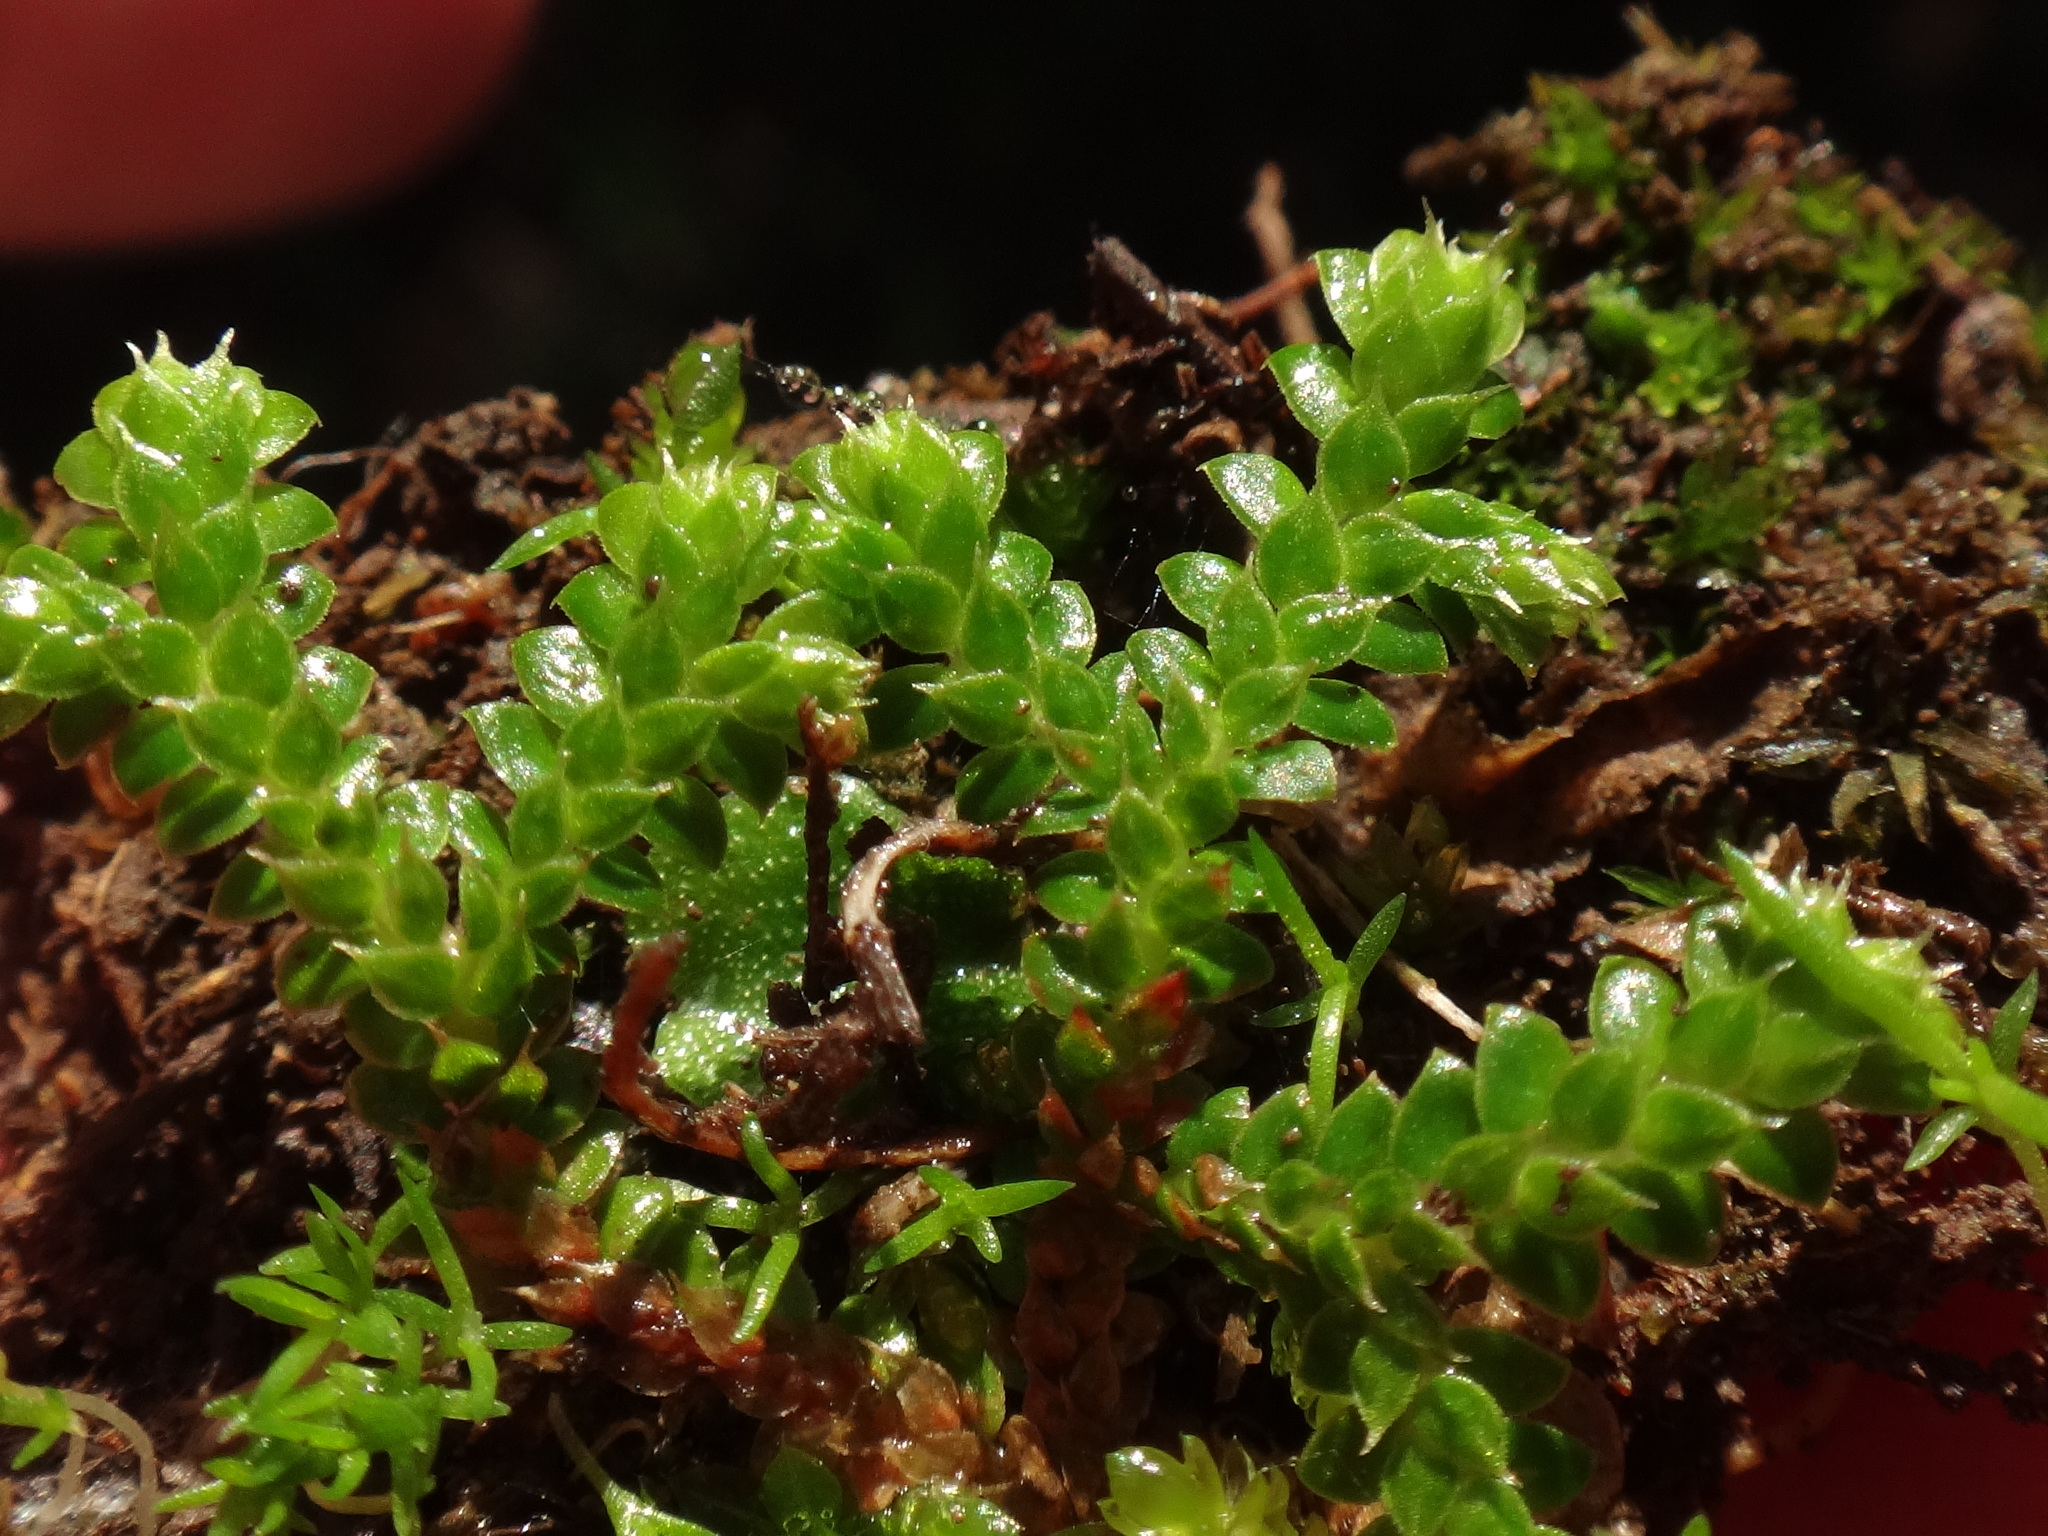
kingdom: Plantae
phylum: Tracheophyta
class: Lycopodiopsida
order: Selaginellales
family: Selaginellaceae
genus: Selaginella
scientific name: Selaginella denticulata
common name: Toothed-leaved clubmoss
